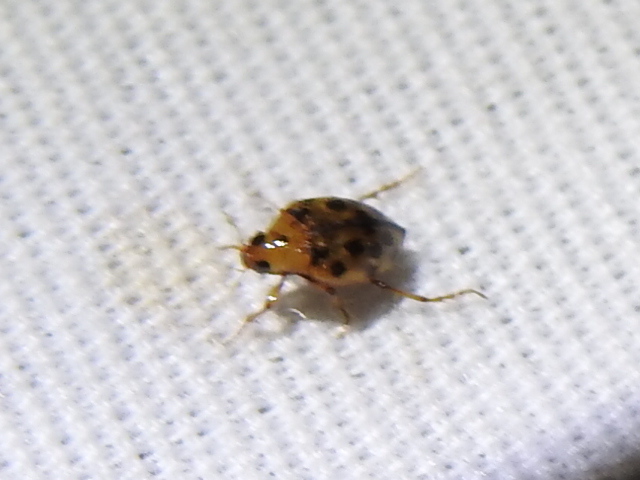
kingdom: Animalia
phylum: Arthropoda
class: Insecta
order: Coleoptera
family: Haliplidae
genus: Haliplus
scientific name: Haliplus
